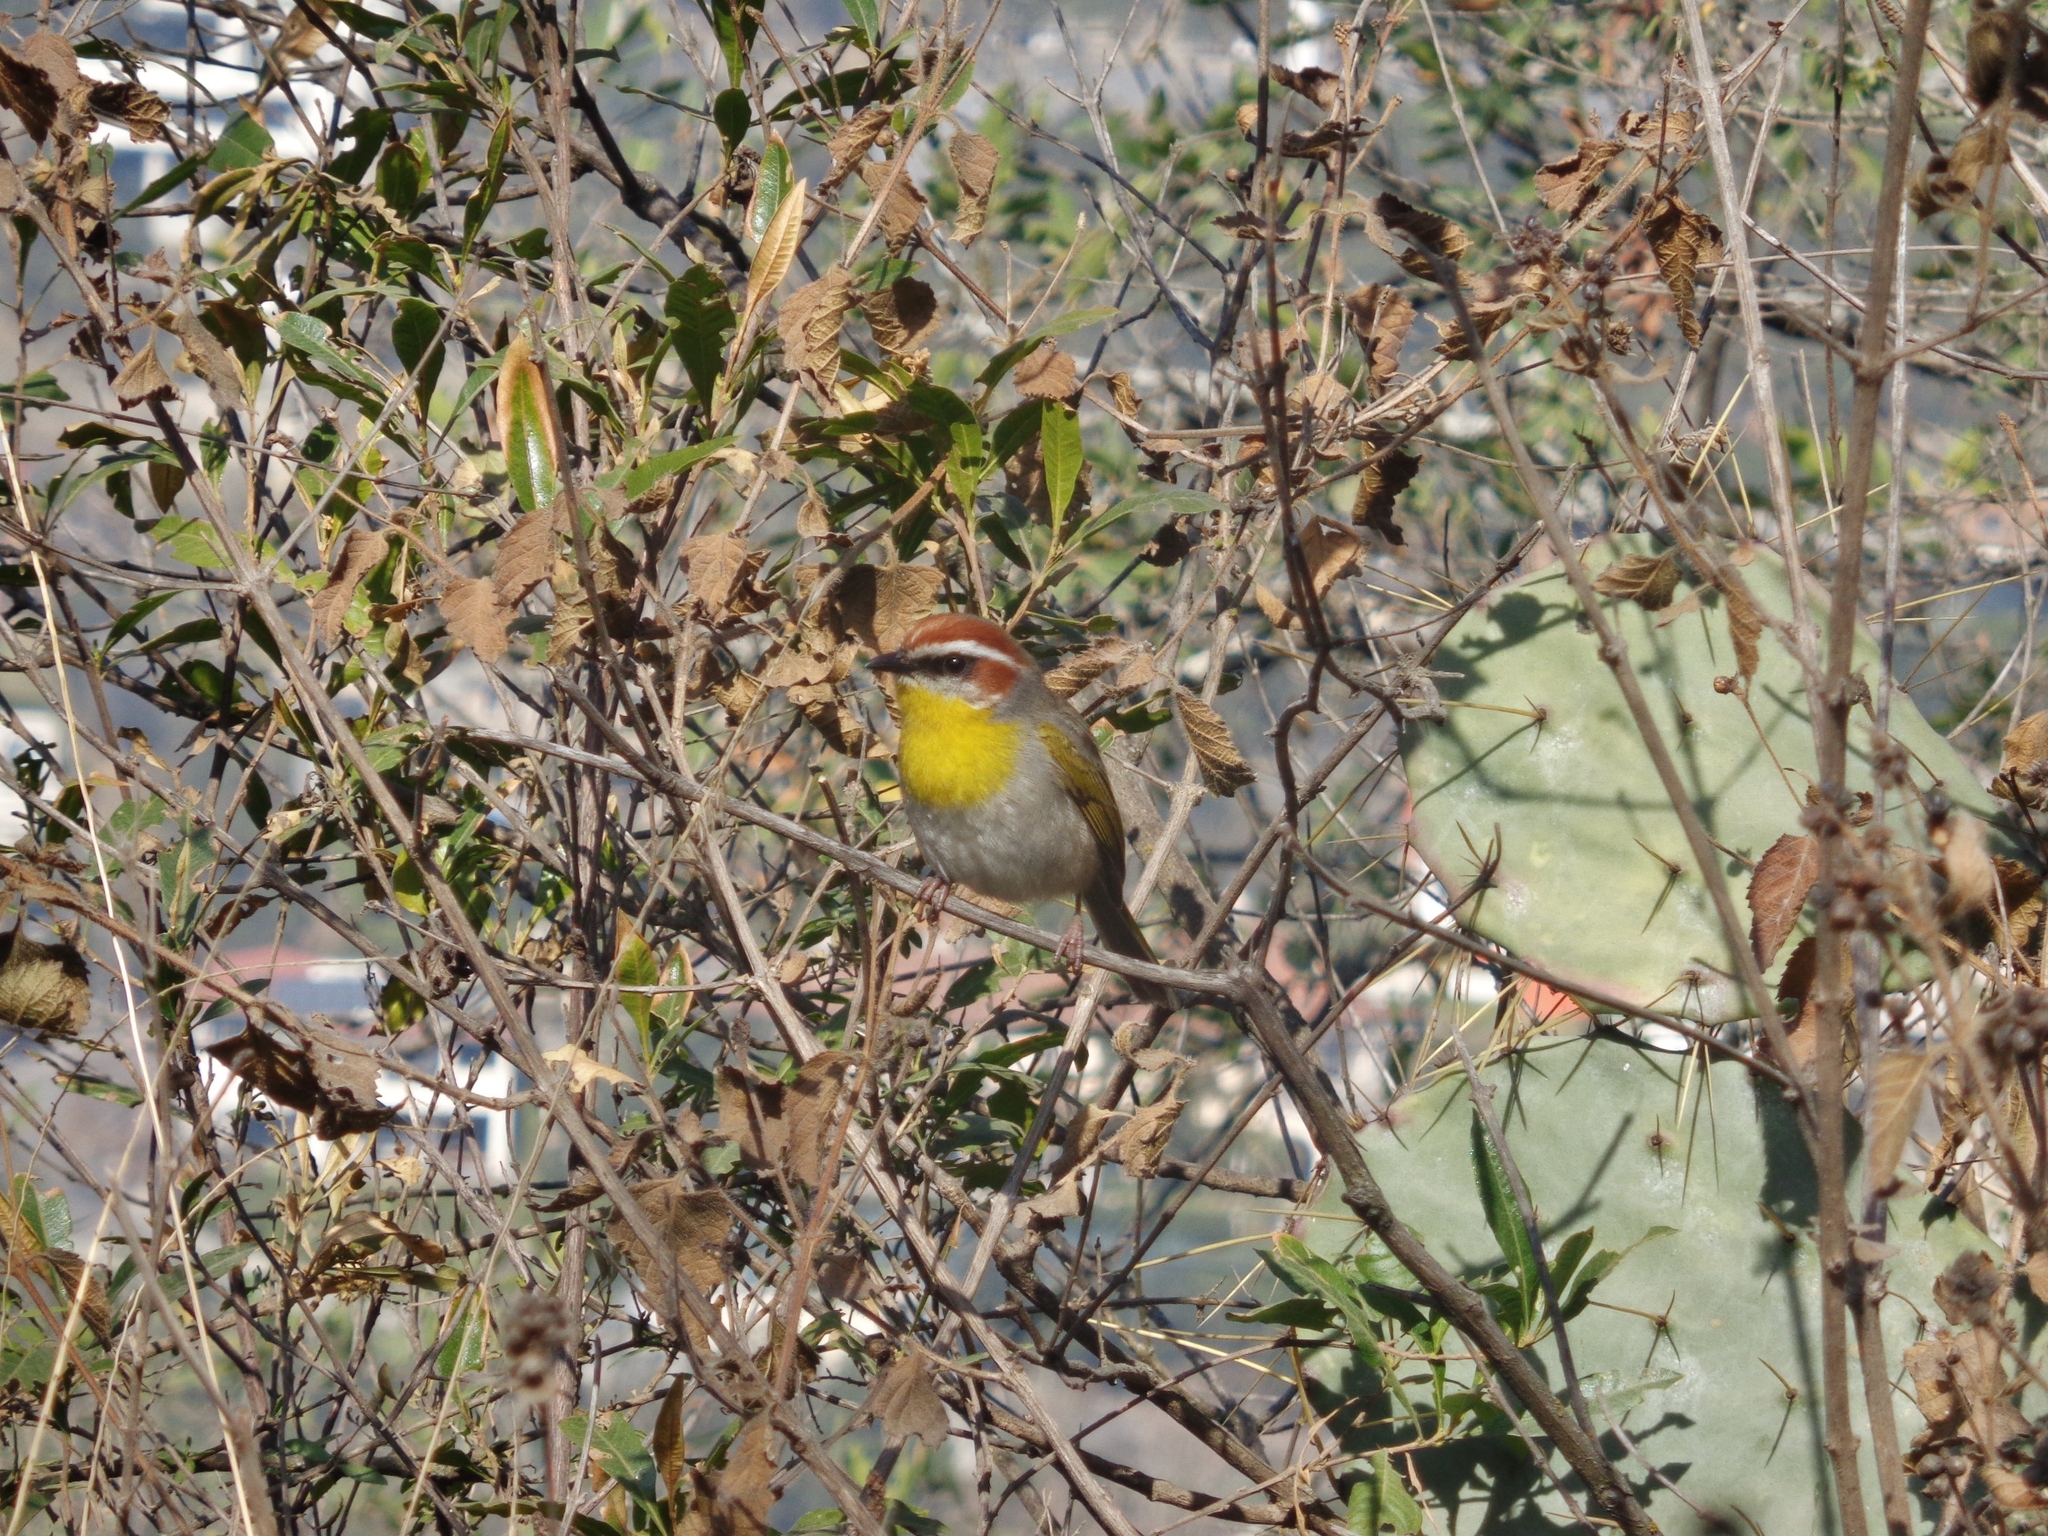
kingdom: Animalia
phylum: Chordata
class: Aves
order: Passeriformes
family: Parulidae
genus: Basileuterus
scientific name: Basileuterus rufifrons
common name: Rufous-capped warbler
